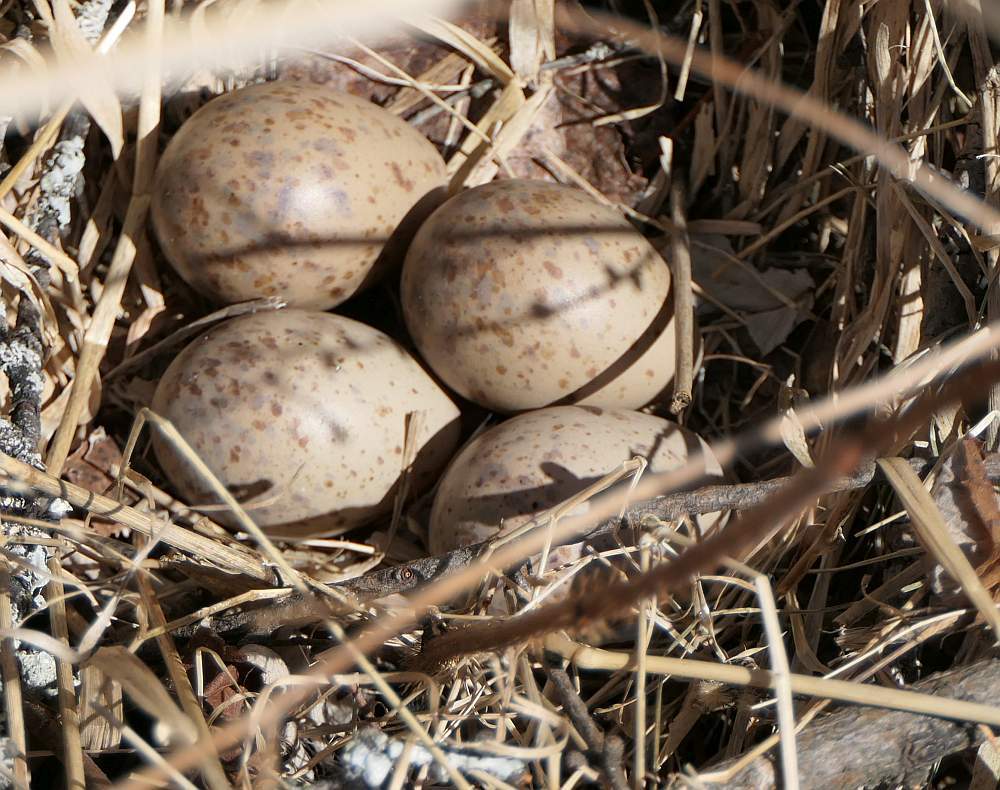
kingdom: Animalia
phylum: Chordata
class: Aves
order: Charadriiformes
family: Scolopacidae
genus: Scolopax
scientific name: Scolopax minor
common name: American woodcock
